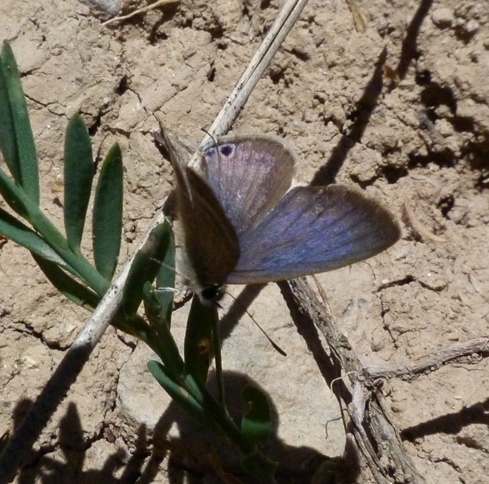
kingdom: Animalia
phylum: Arthropoda
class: Insecta
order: Lepidoptera
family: Lycaenidae
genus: Lampides
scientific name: Lampides boeticus
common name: Long-tailed blue
